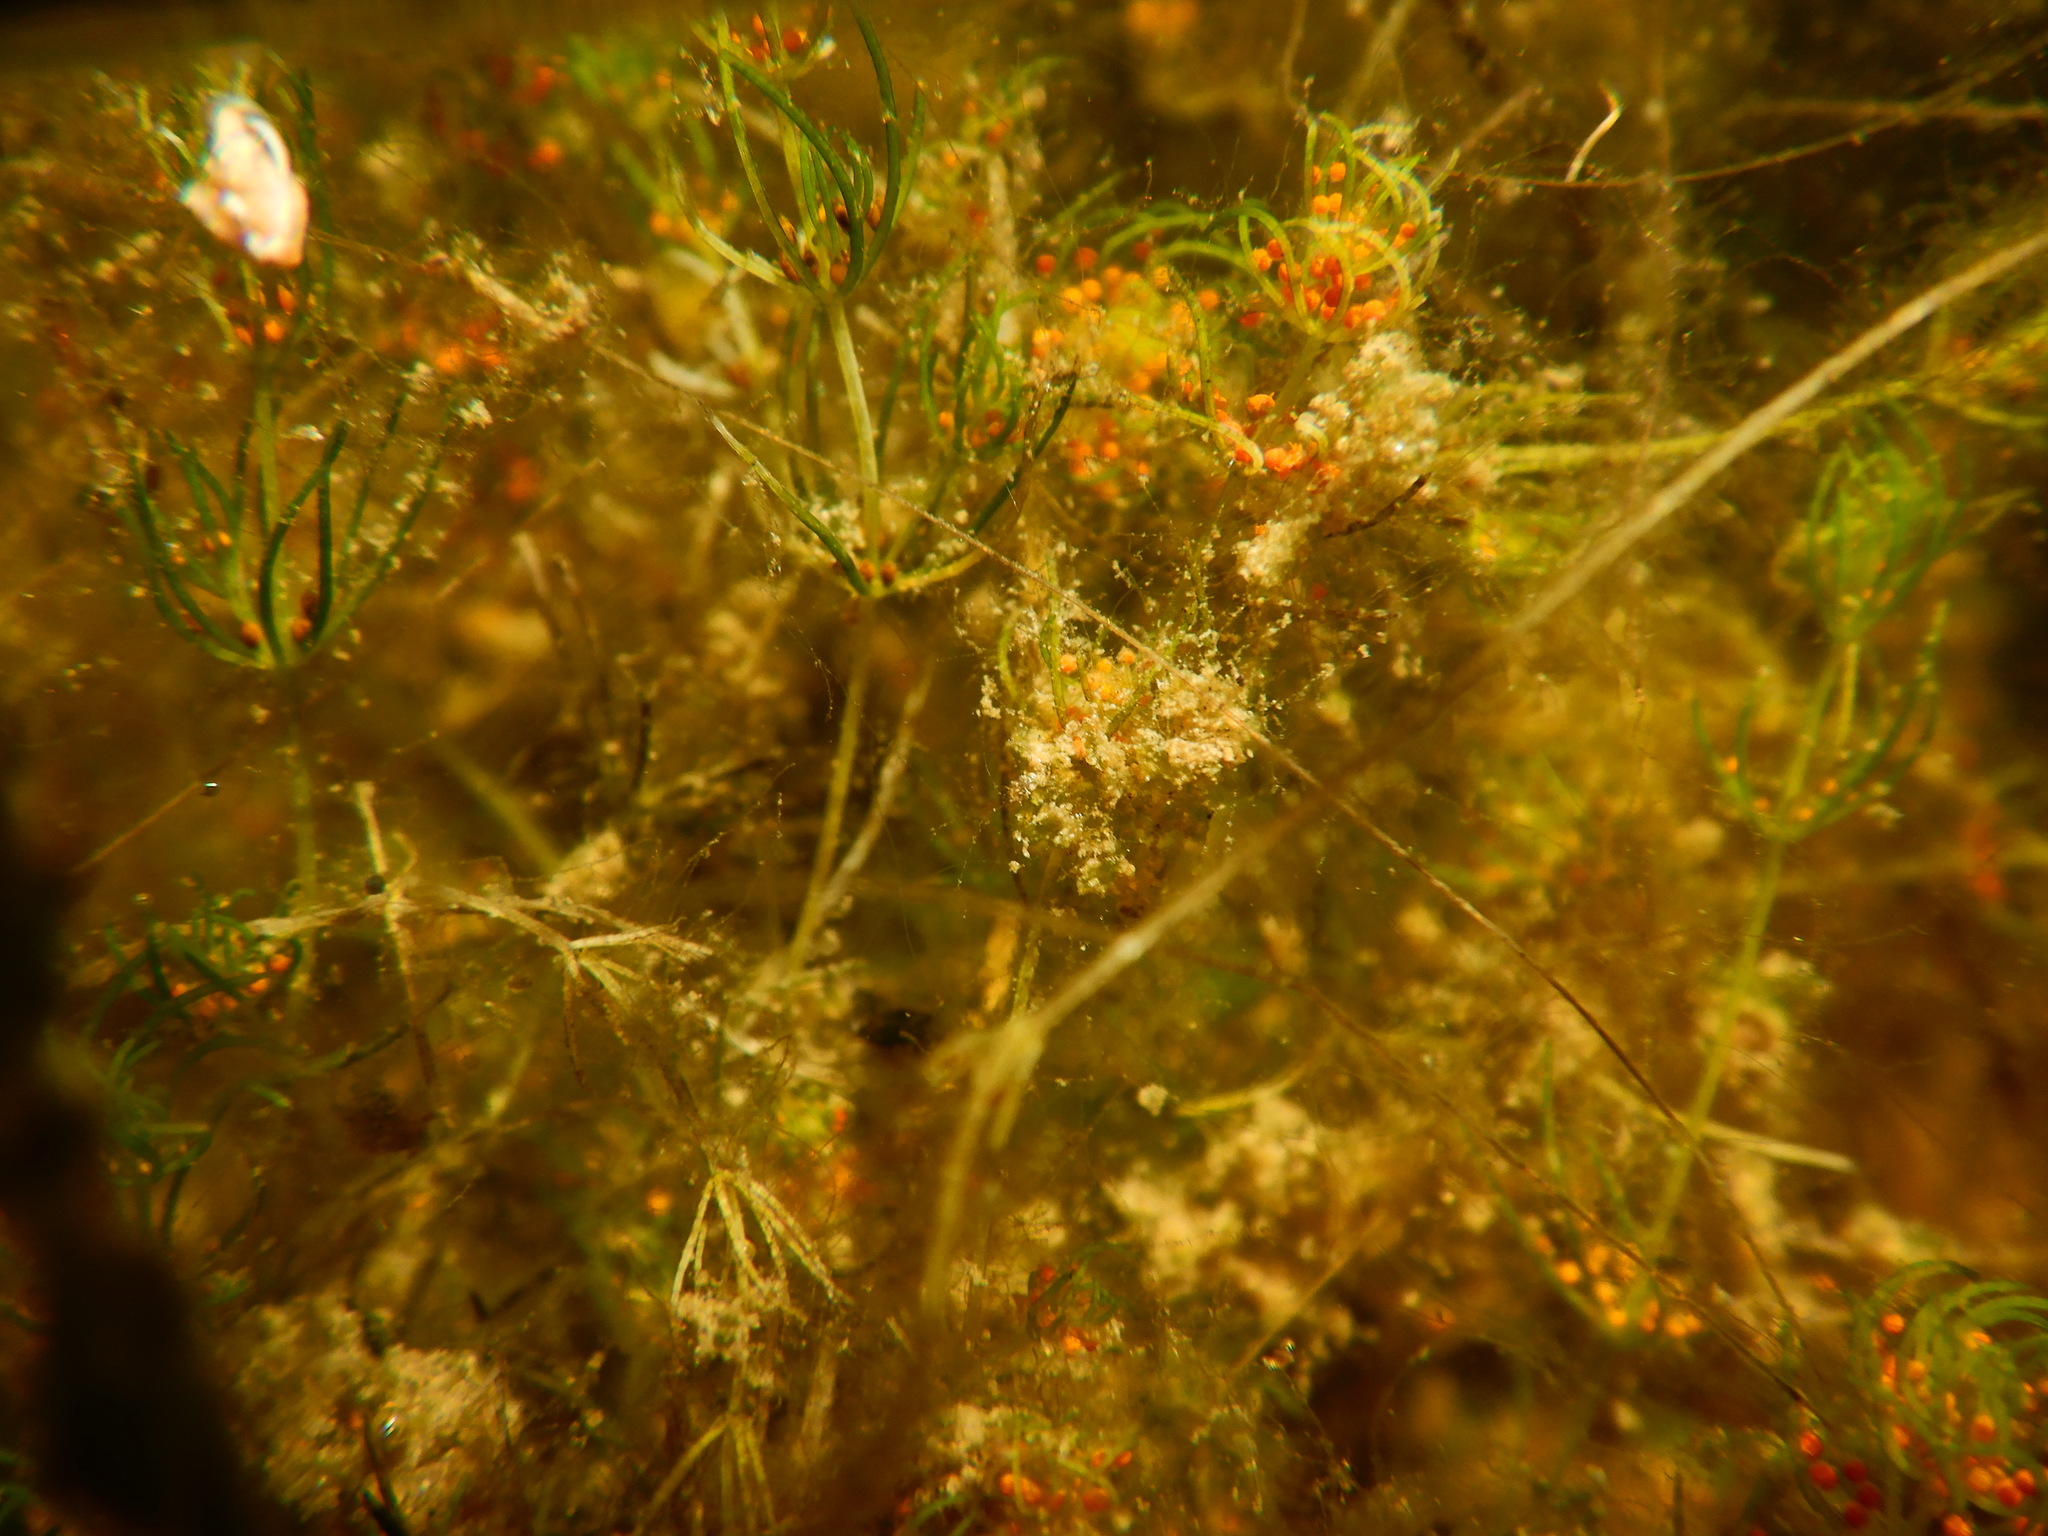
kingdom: Plantae
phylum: Charophyta
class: Charophyceae
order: Charales
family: Characeae
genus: Chara
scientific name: Chara connivens
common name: Convergent stonewort
